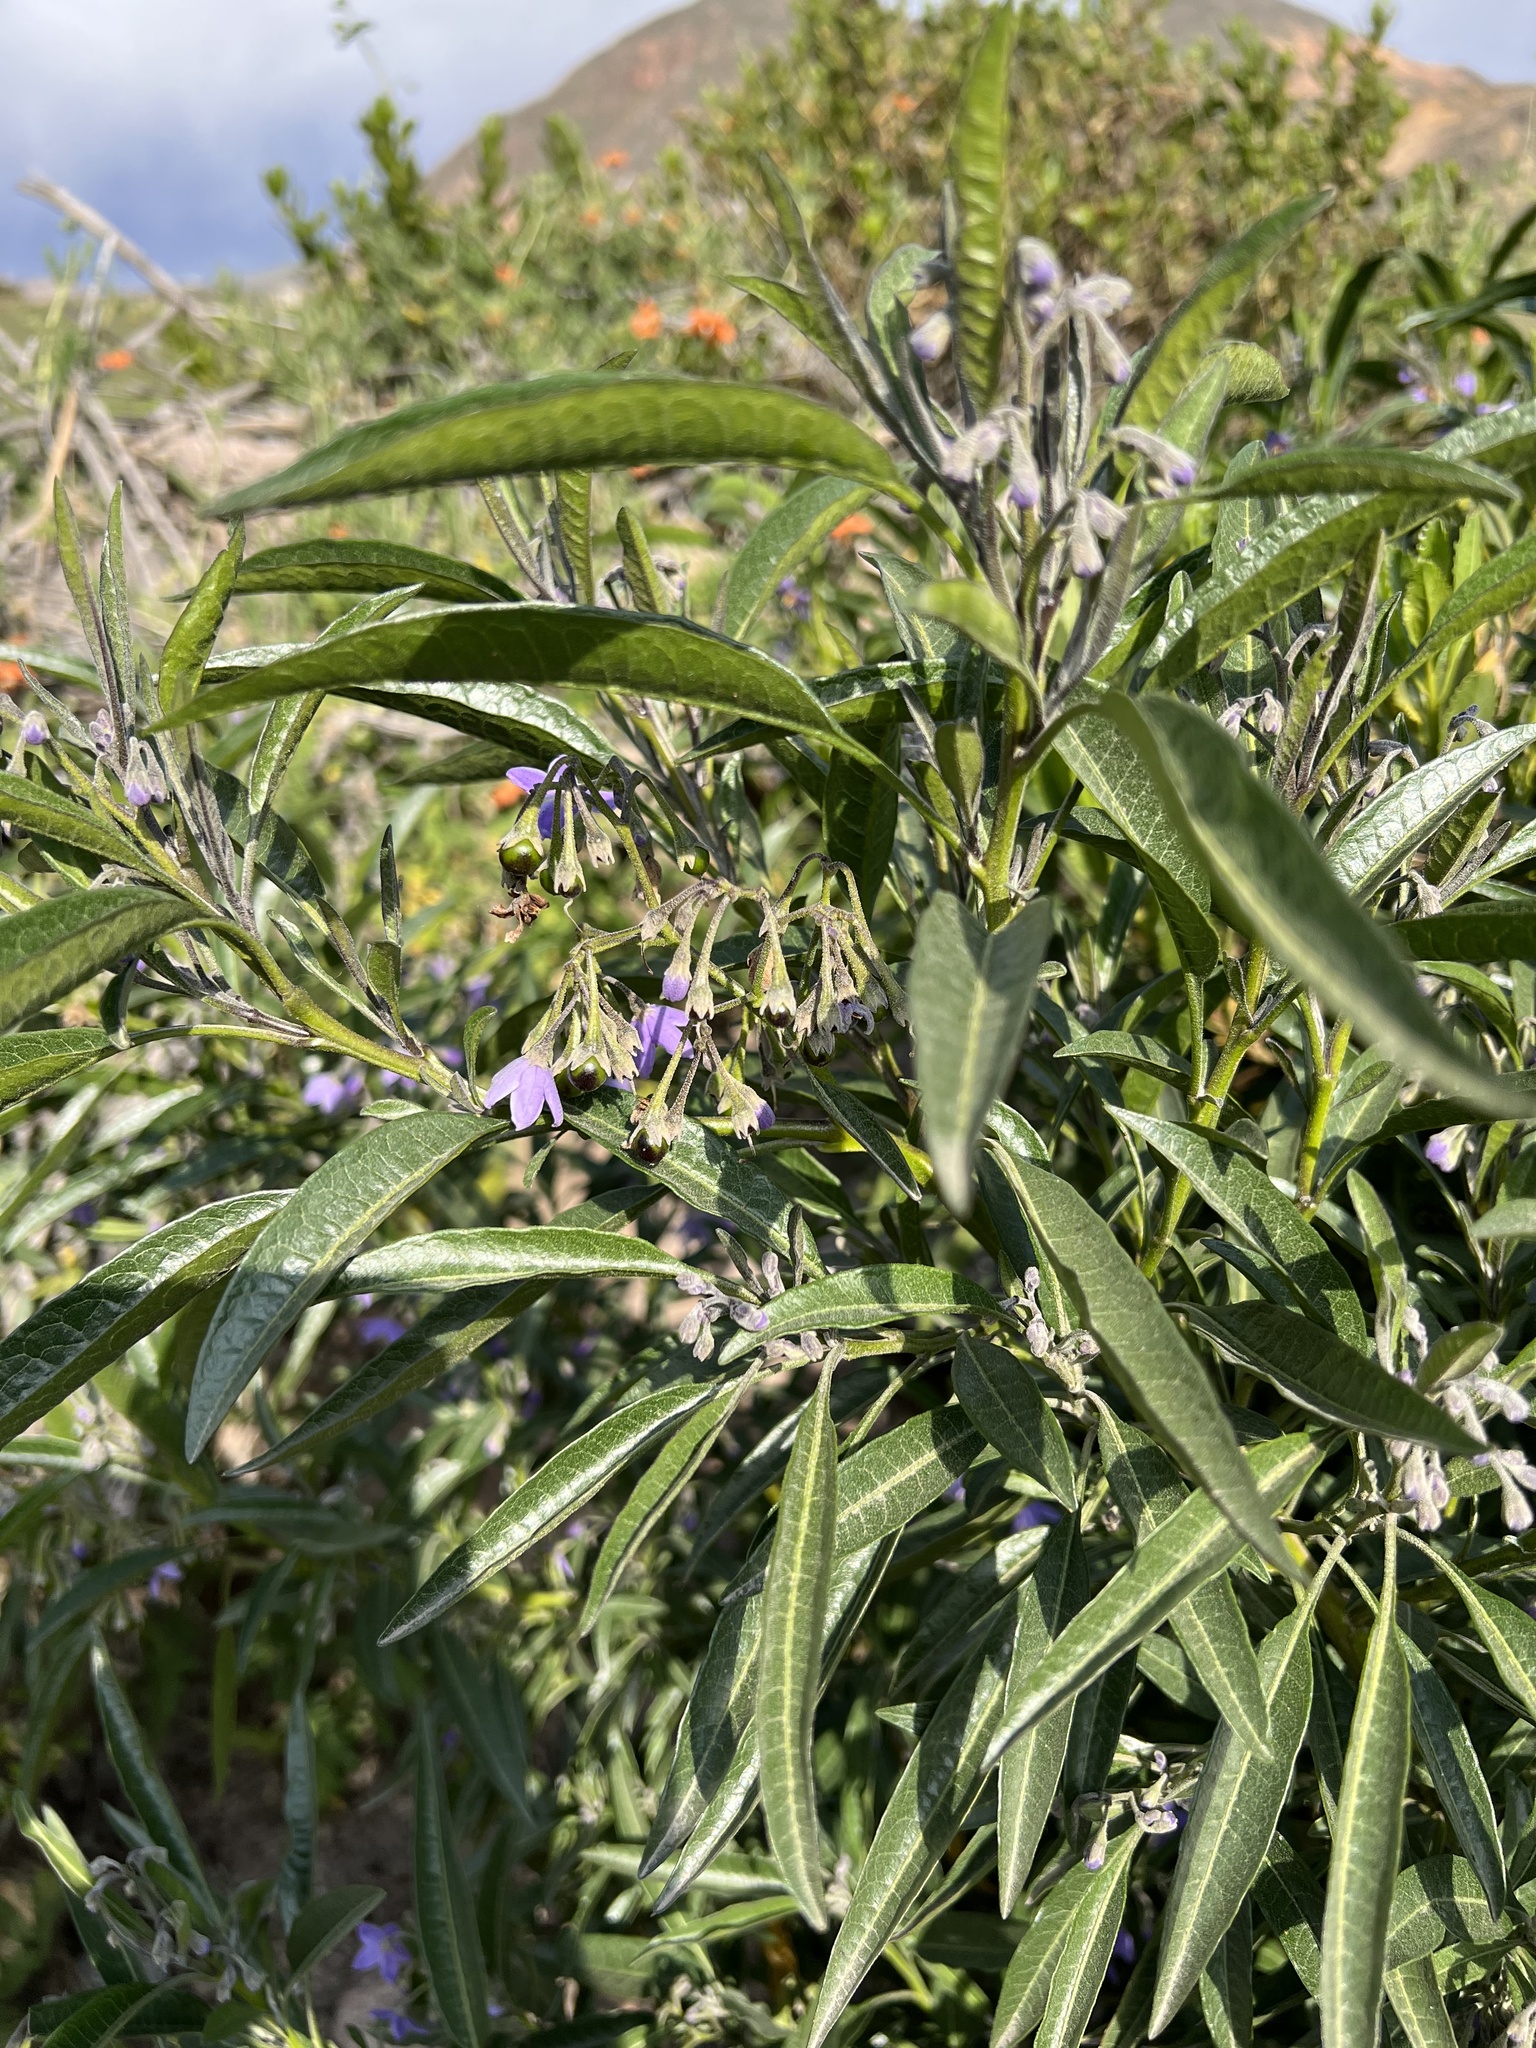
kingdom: Plantae
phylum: Tracheophyta
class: Magnoliopsida
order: Solanales
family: Solanaceae
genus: Solanum
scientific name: Solanum nitidum
